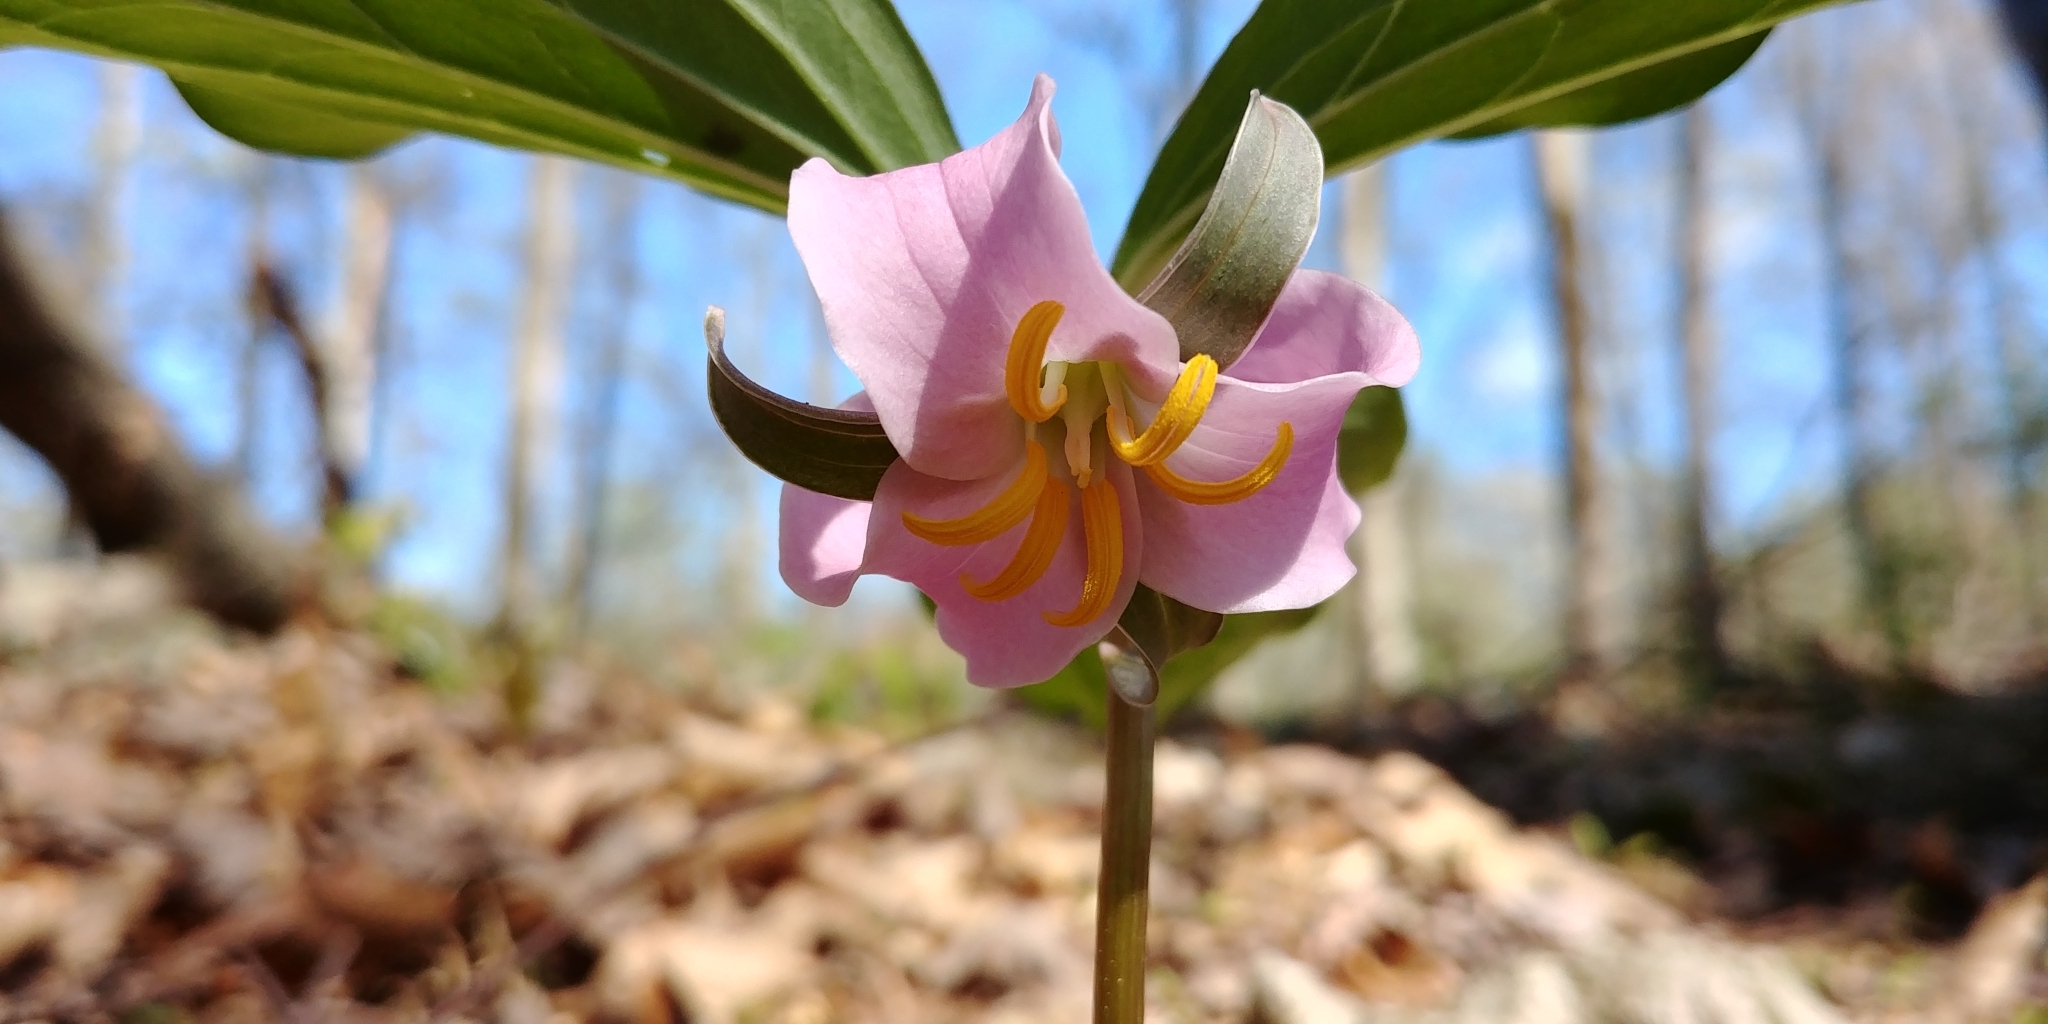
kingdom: Plantae
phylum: Tracheophyta
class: Liliopsida
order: Liliales
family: Melanthiaceae
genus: Trillium
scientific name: Trillium catesbaei
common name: Bashful trillium
